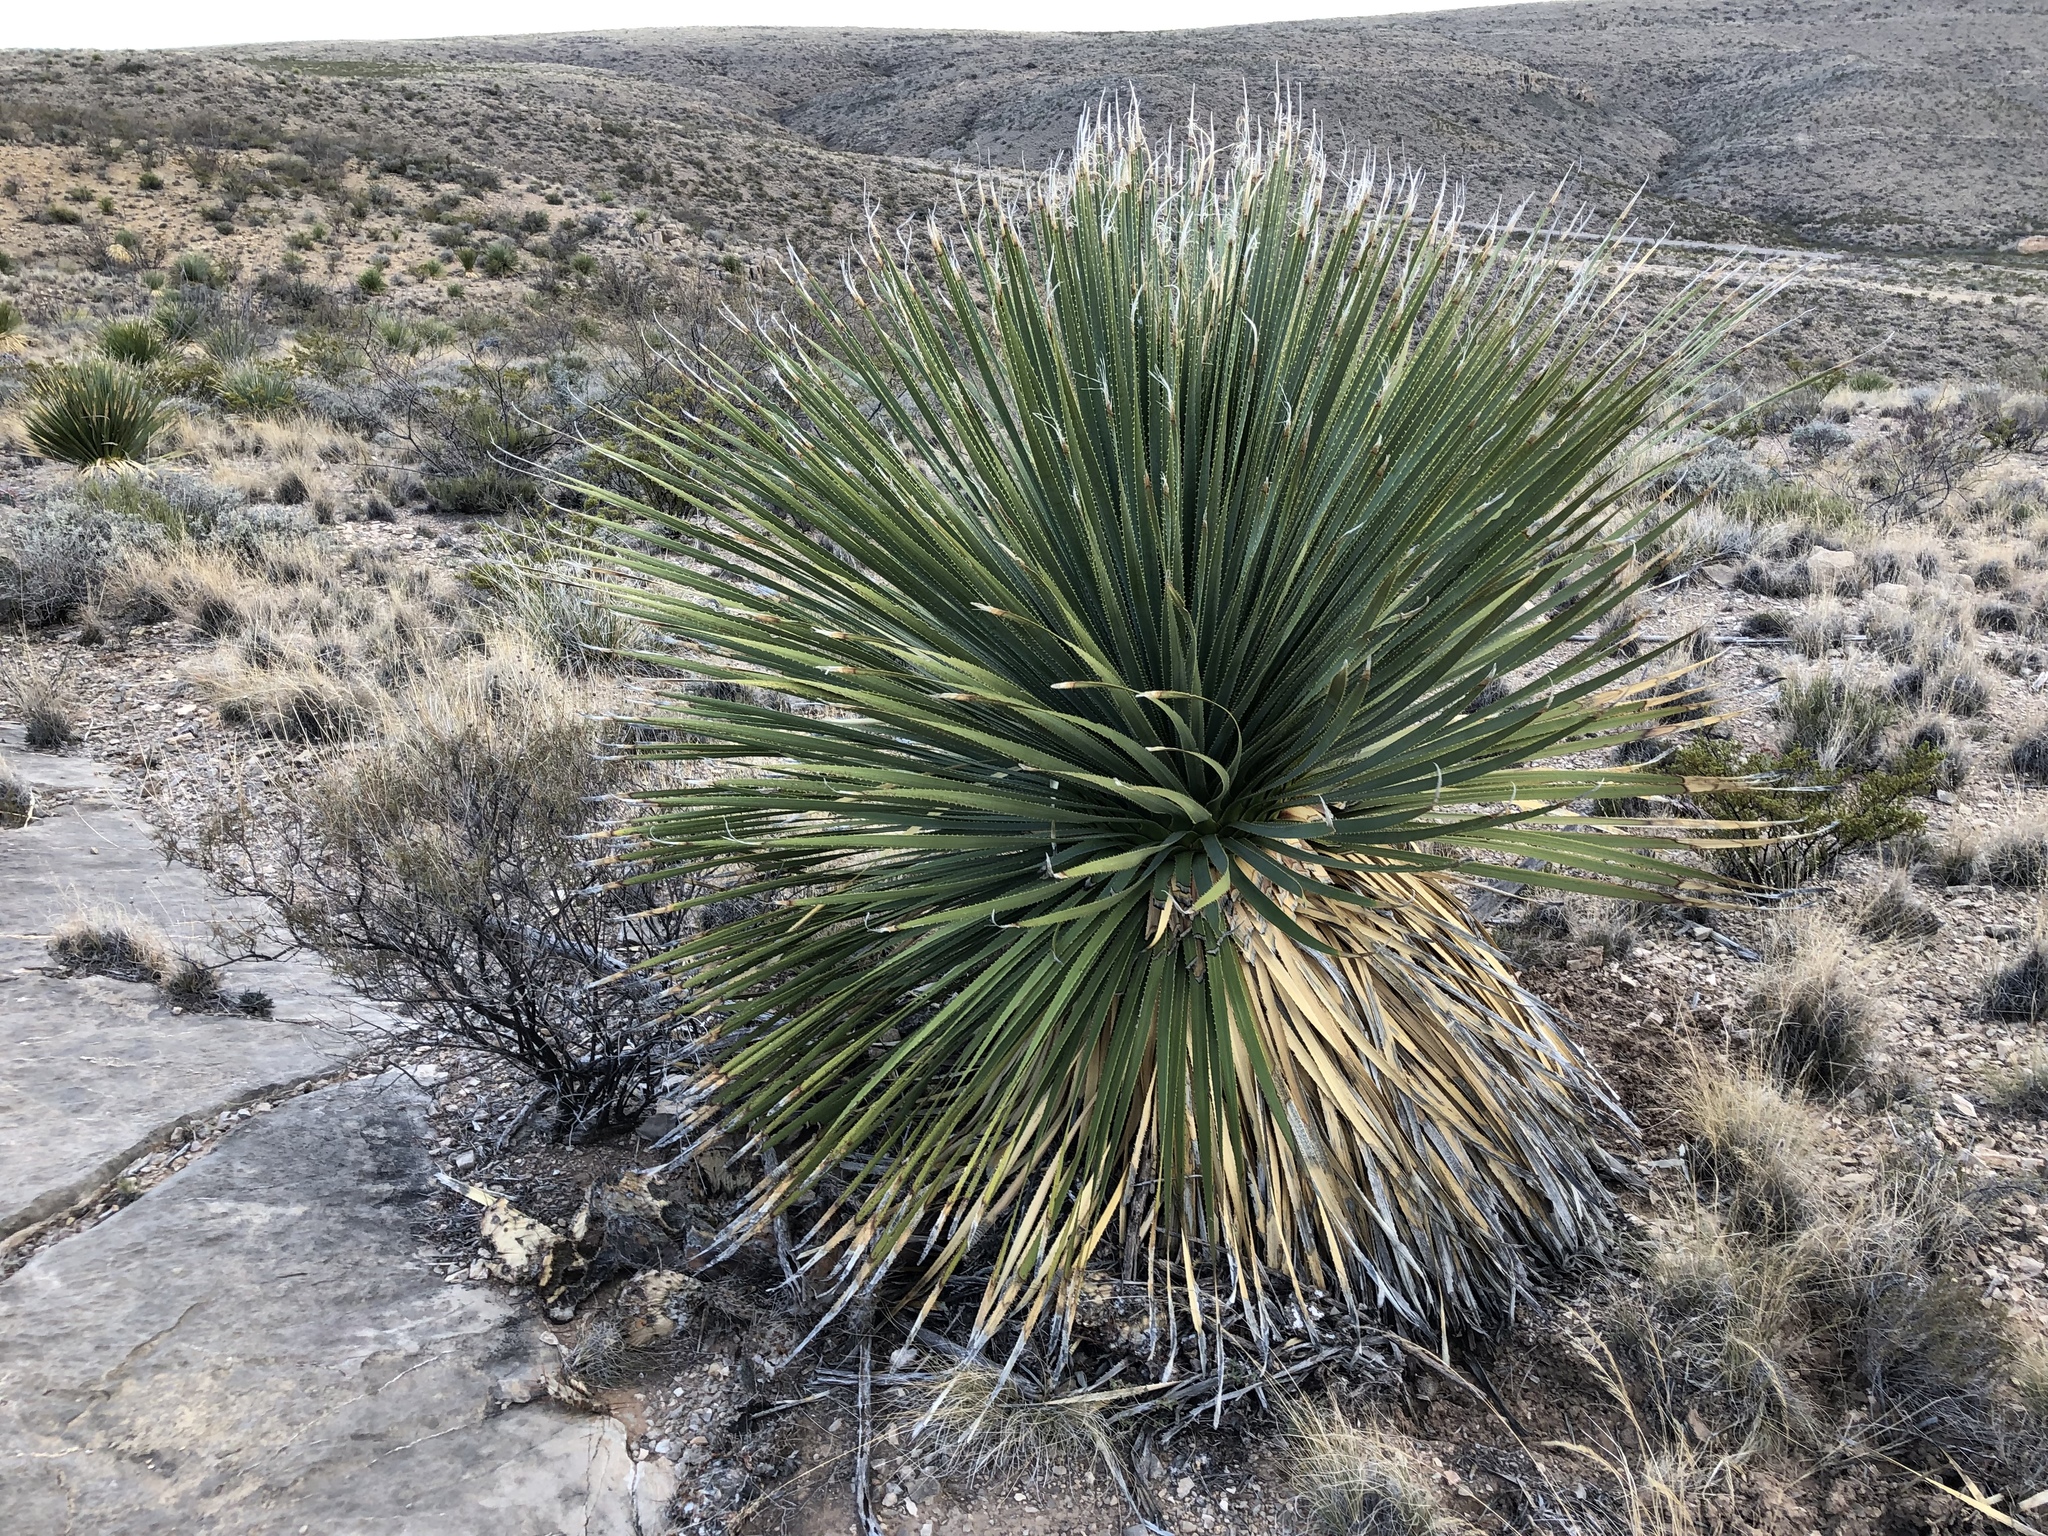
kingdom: Plantae
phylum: Tracheophyta
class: Liliopsida
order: Asparagales
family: Asparagaceae
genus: Dasylirion
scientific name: Dasylirion wheeleri
